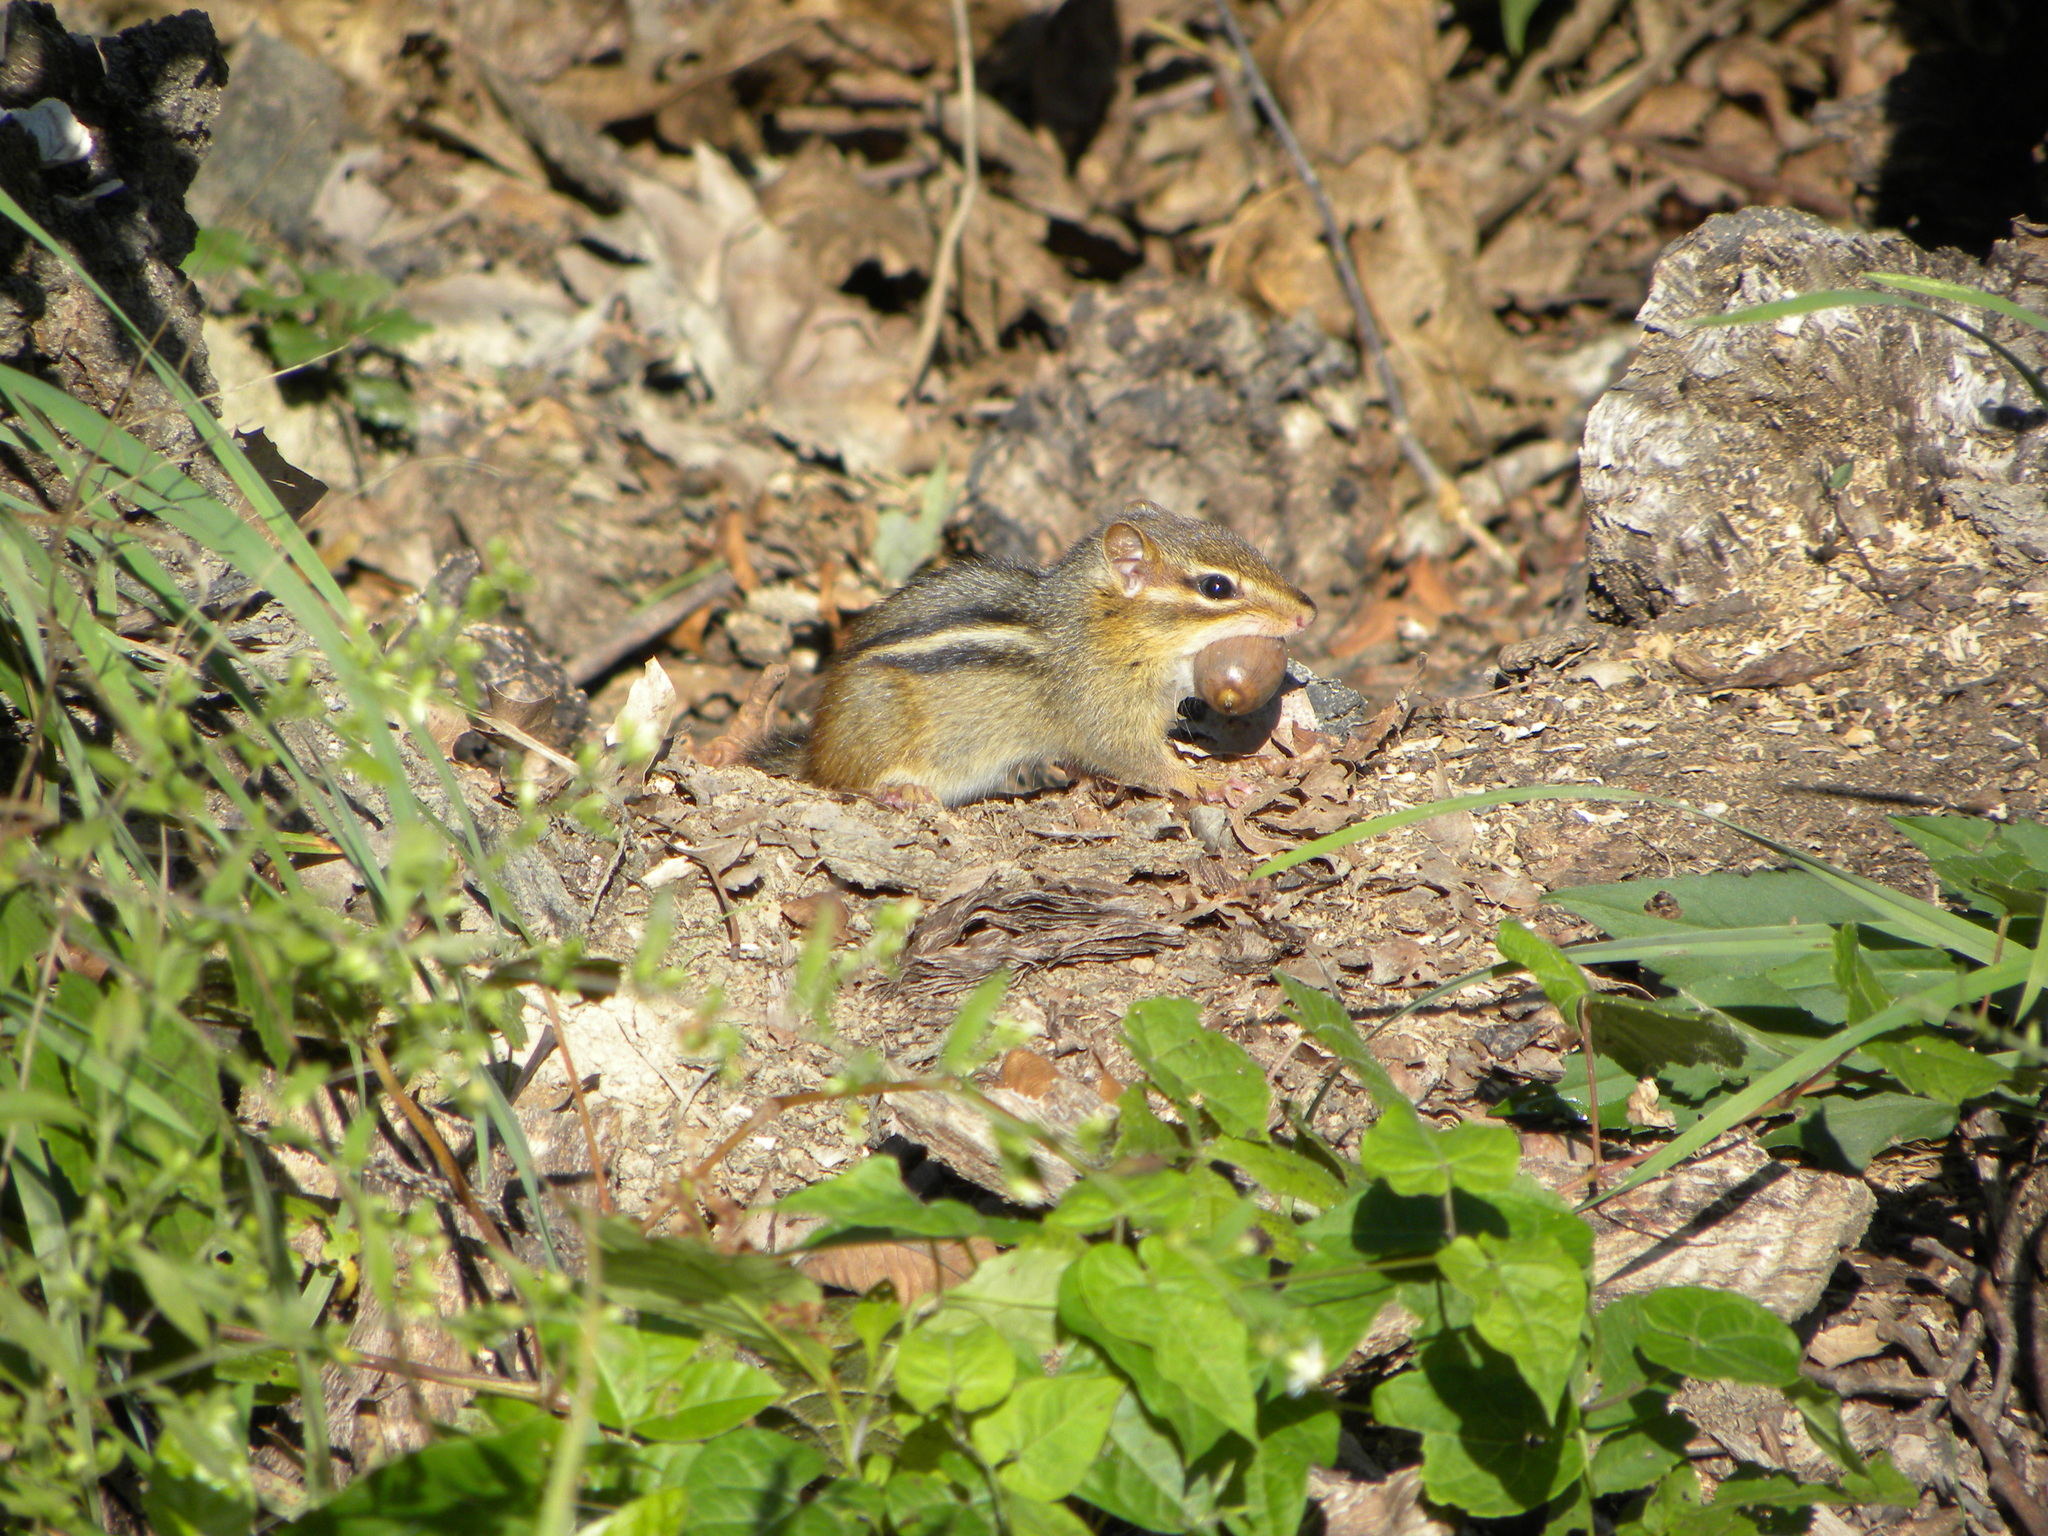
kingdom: Animalia
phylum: Chordata
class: Mammalia
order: Rodentia
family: Sciuridae
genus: Tamias
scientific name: Tamias striatus
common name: Eastern chipmunk
